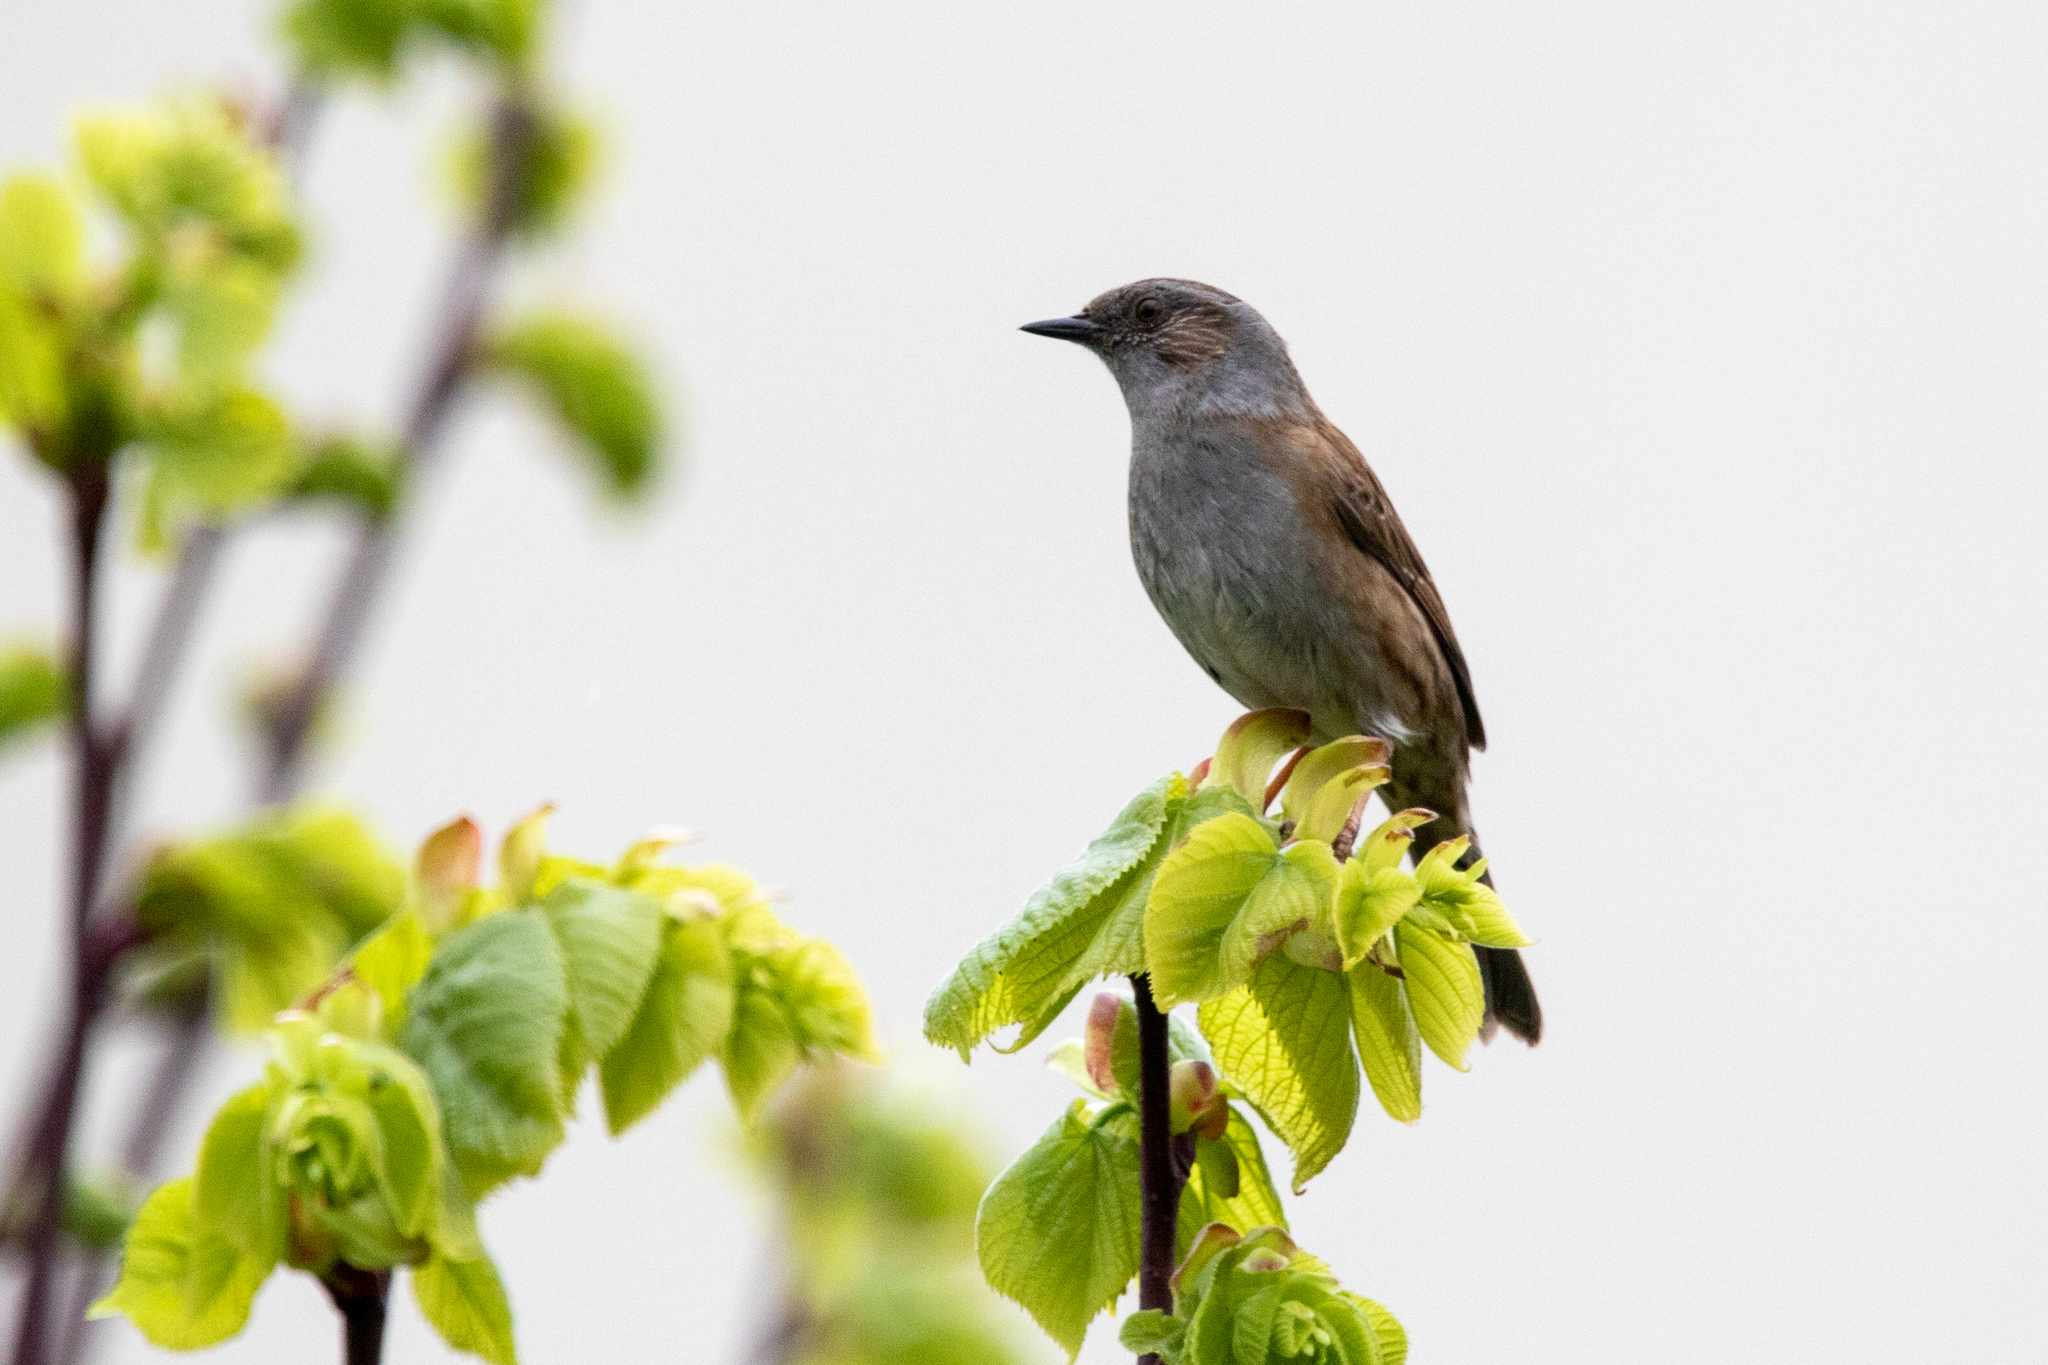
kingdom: Animalia
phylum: Chordata
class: Aves
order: Passeriformes
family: Prunellidae
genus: Prunella
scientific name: Prunella modularis
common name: Dunnock
